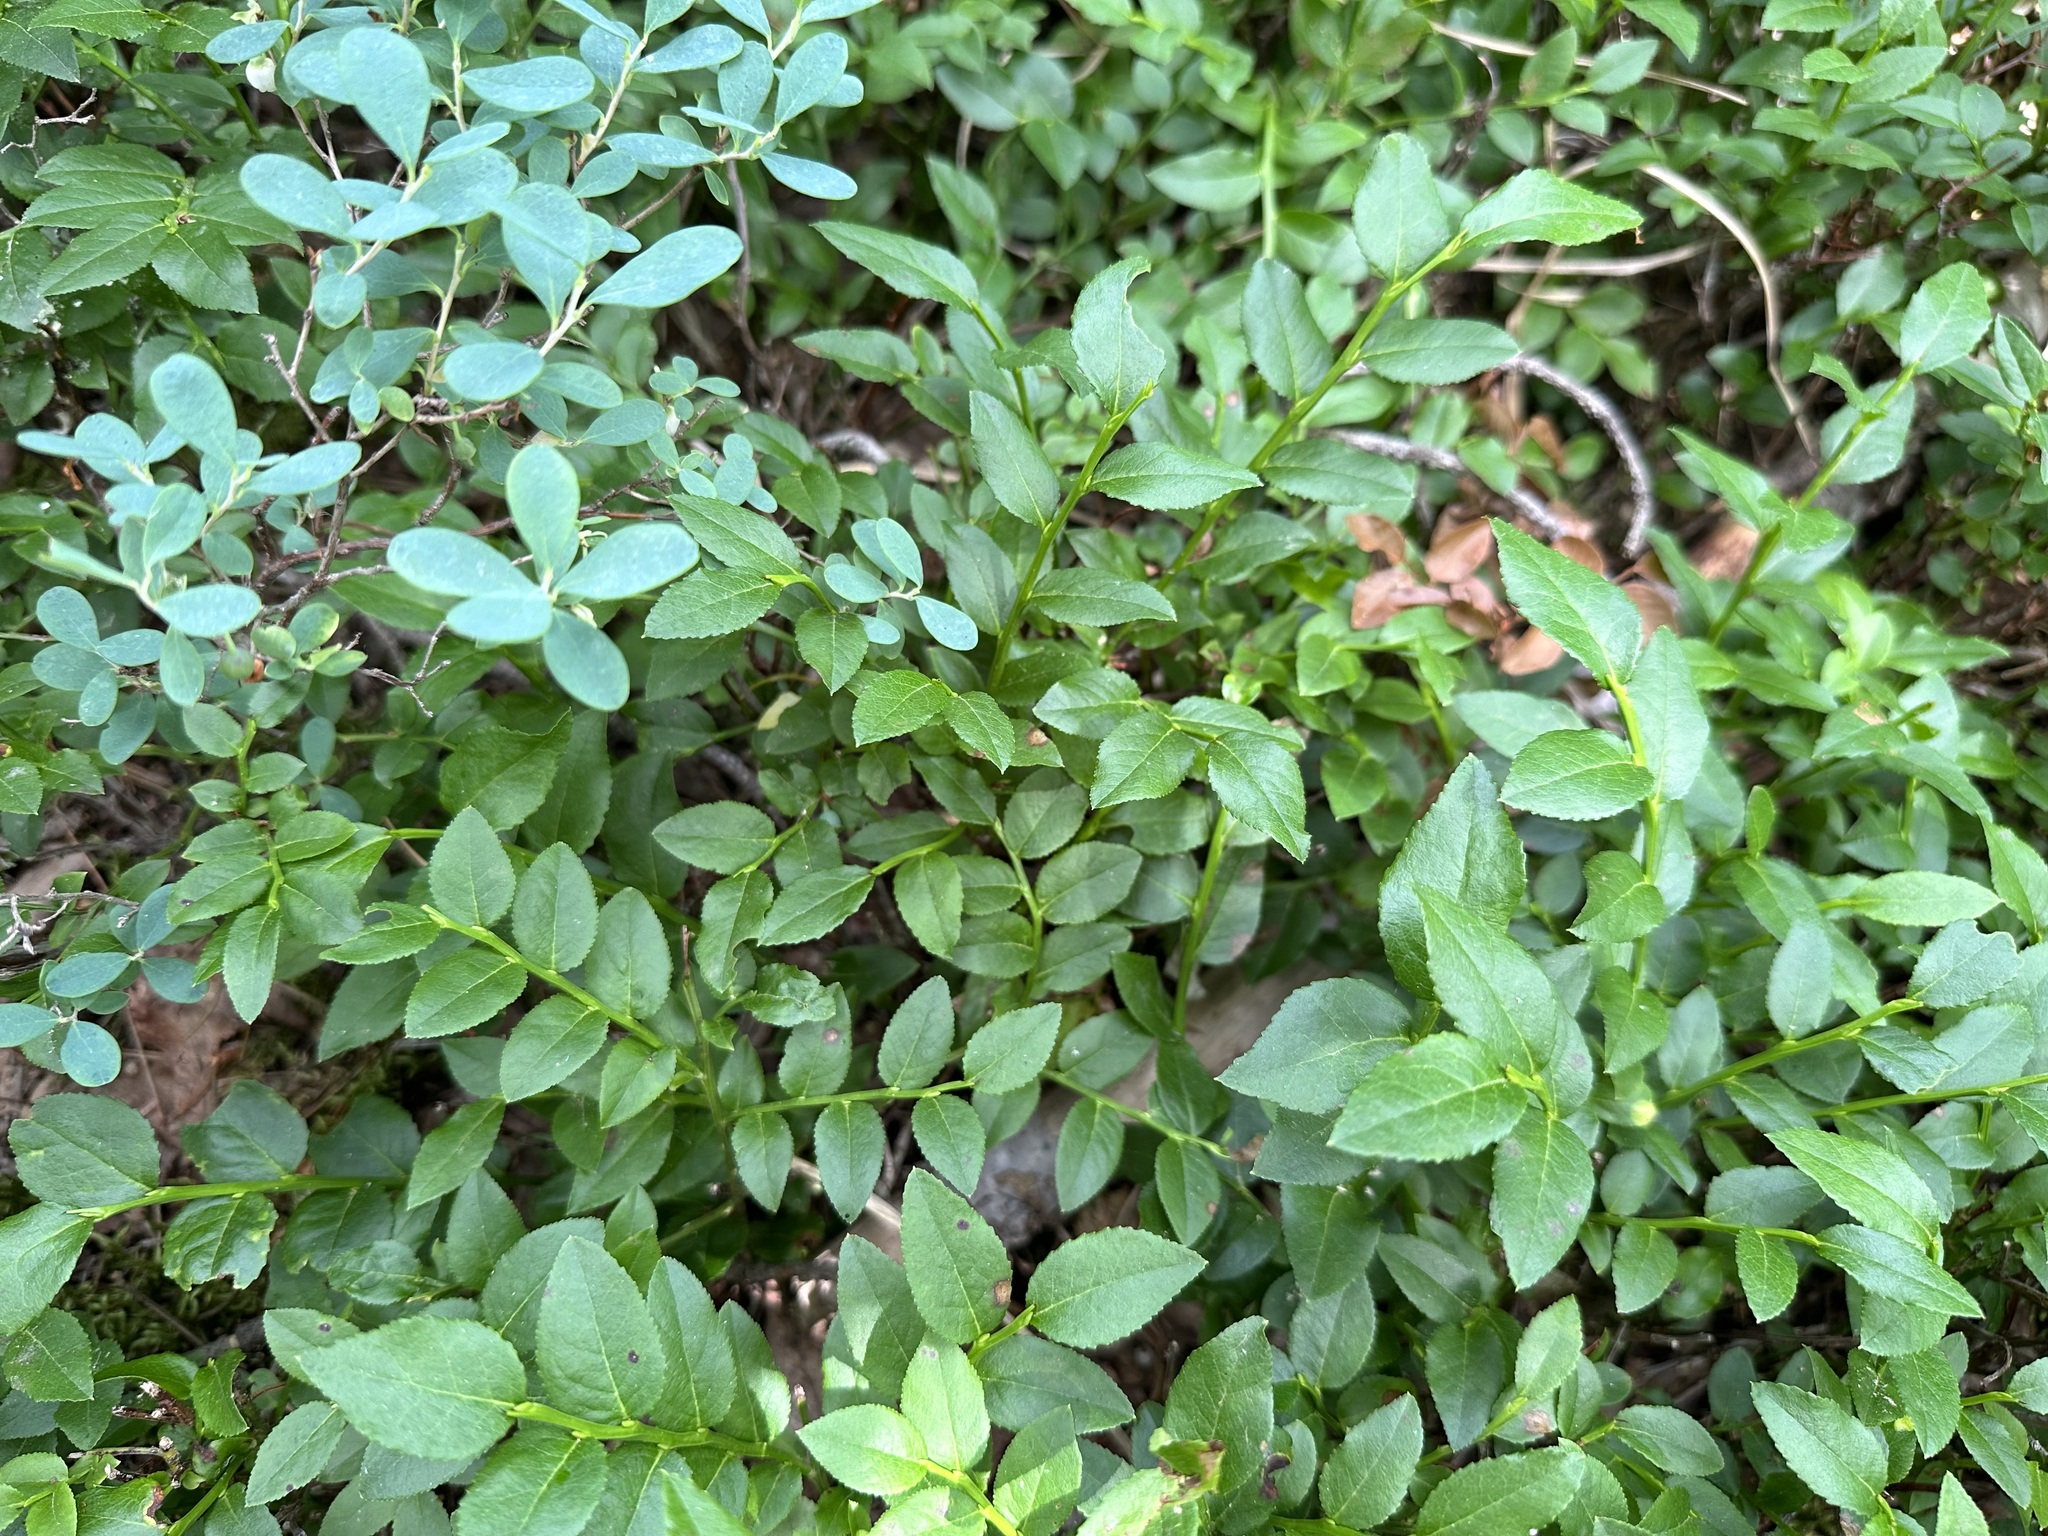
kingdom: Plantae
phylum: Tracheophyta
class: Magnoliopsida
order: Ericales
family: Ericaceae
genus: Vaccinium
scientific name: Vaccinium myrtillus
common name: Bilberry
